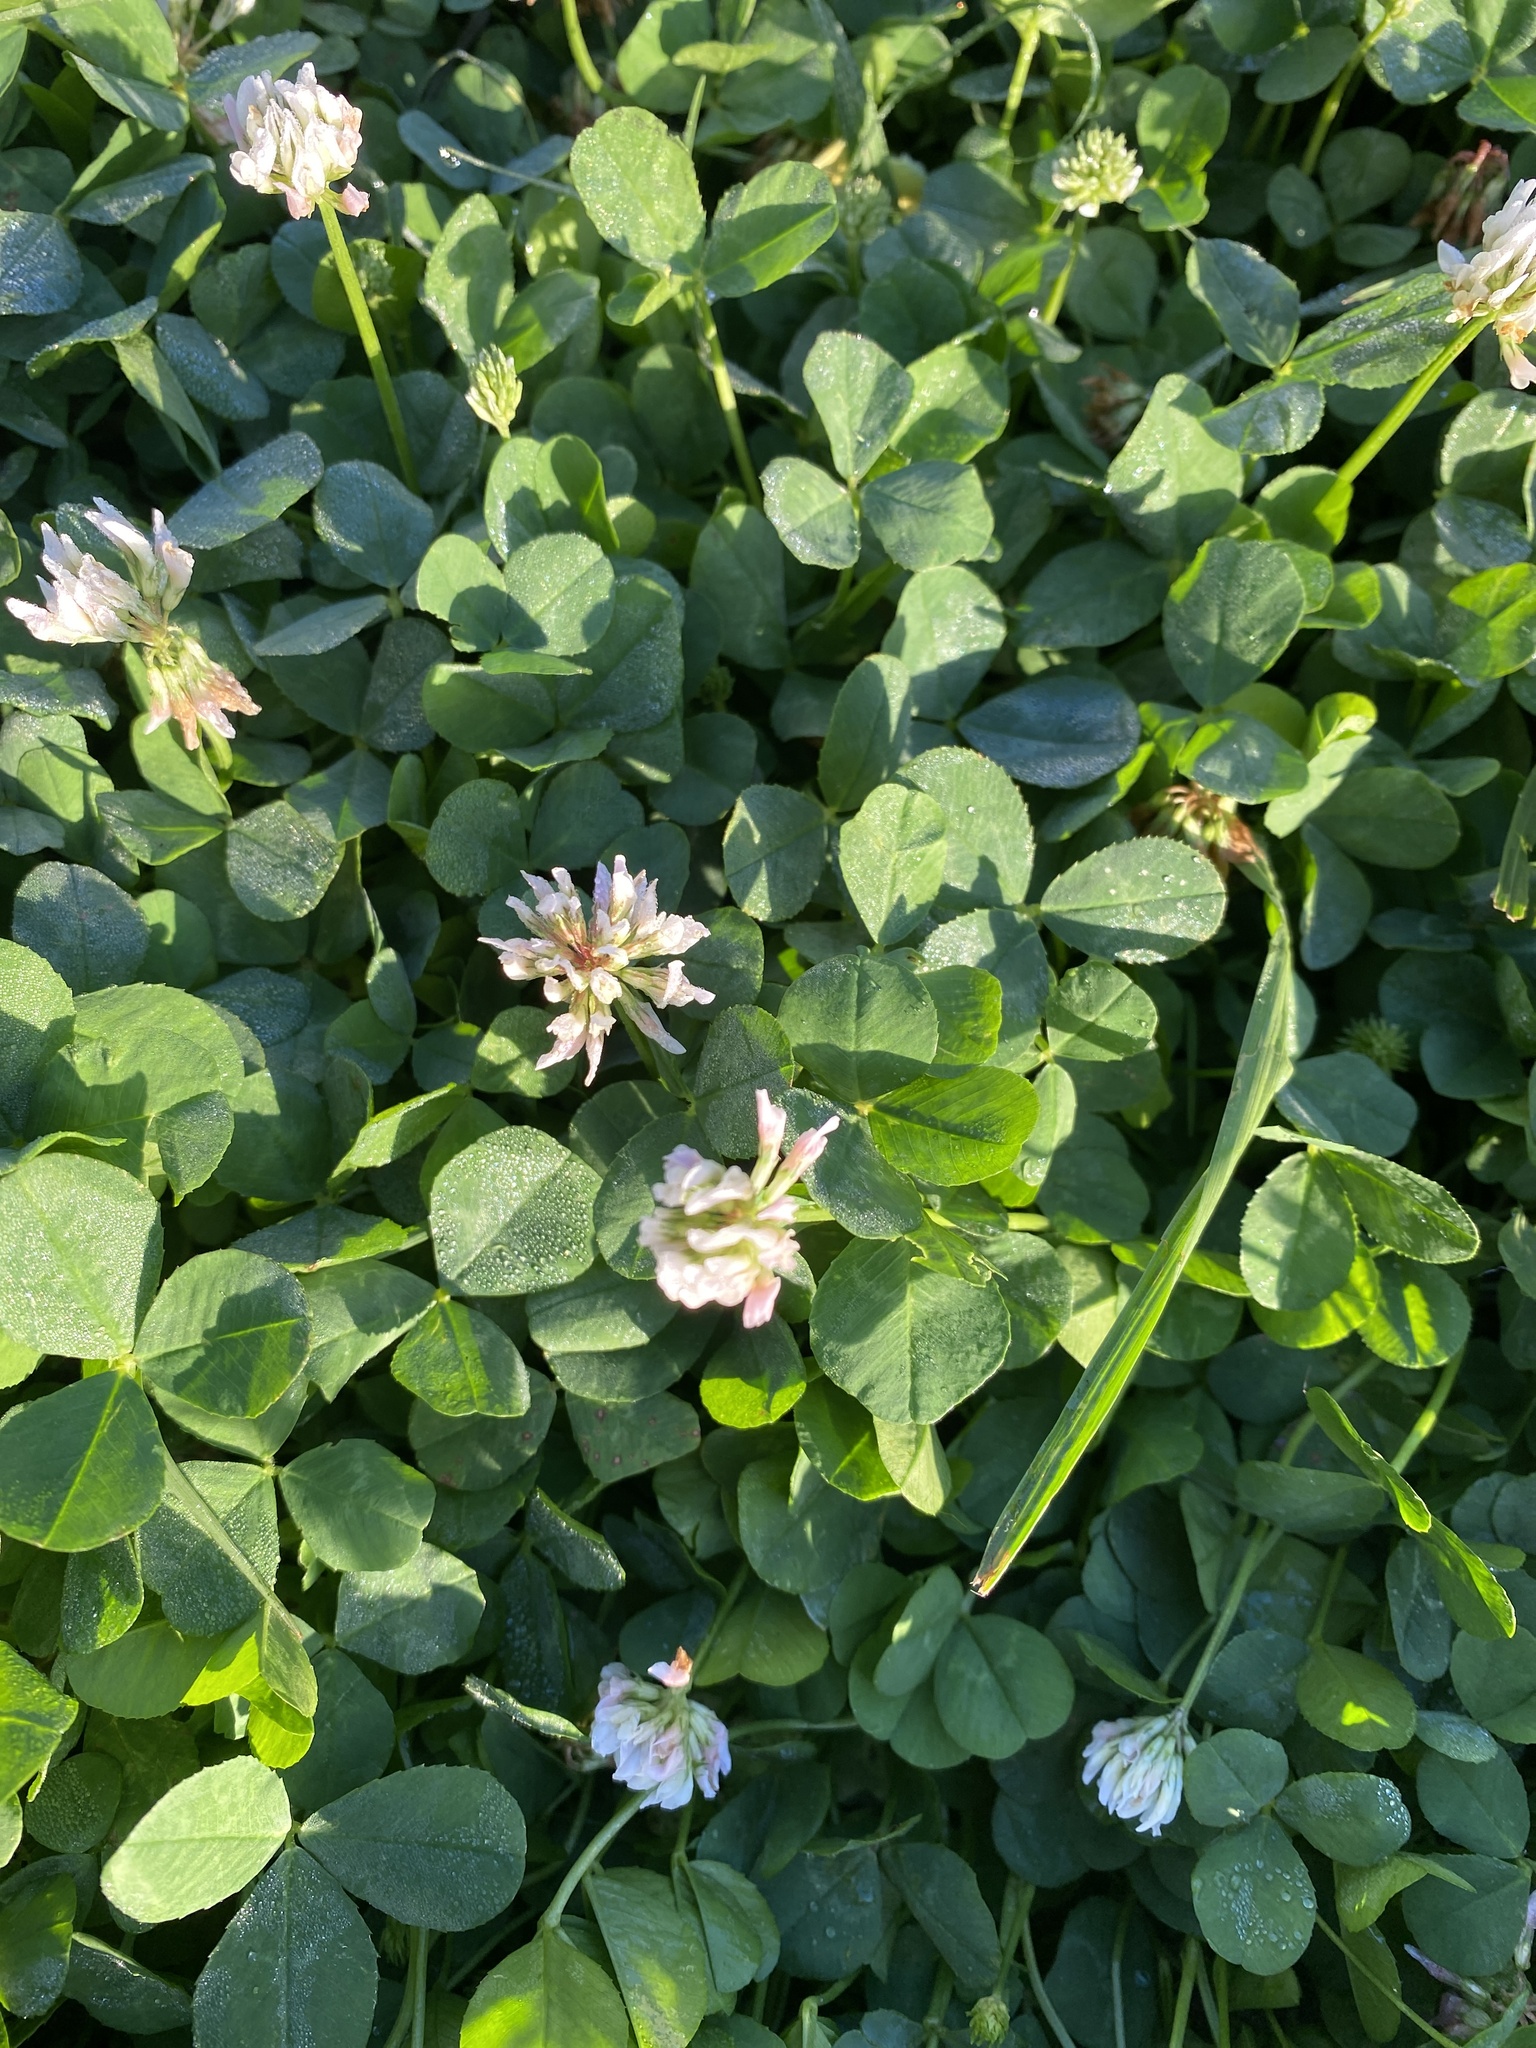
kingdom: Plantae
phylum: Tracheophyta
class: Magnoliopsida
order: Fabales
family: Fabaceae
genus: Trifolium
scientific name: Trifolium repens
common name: White clover
